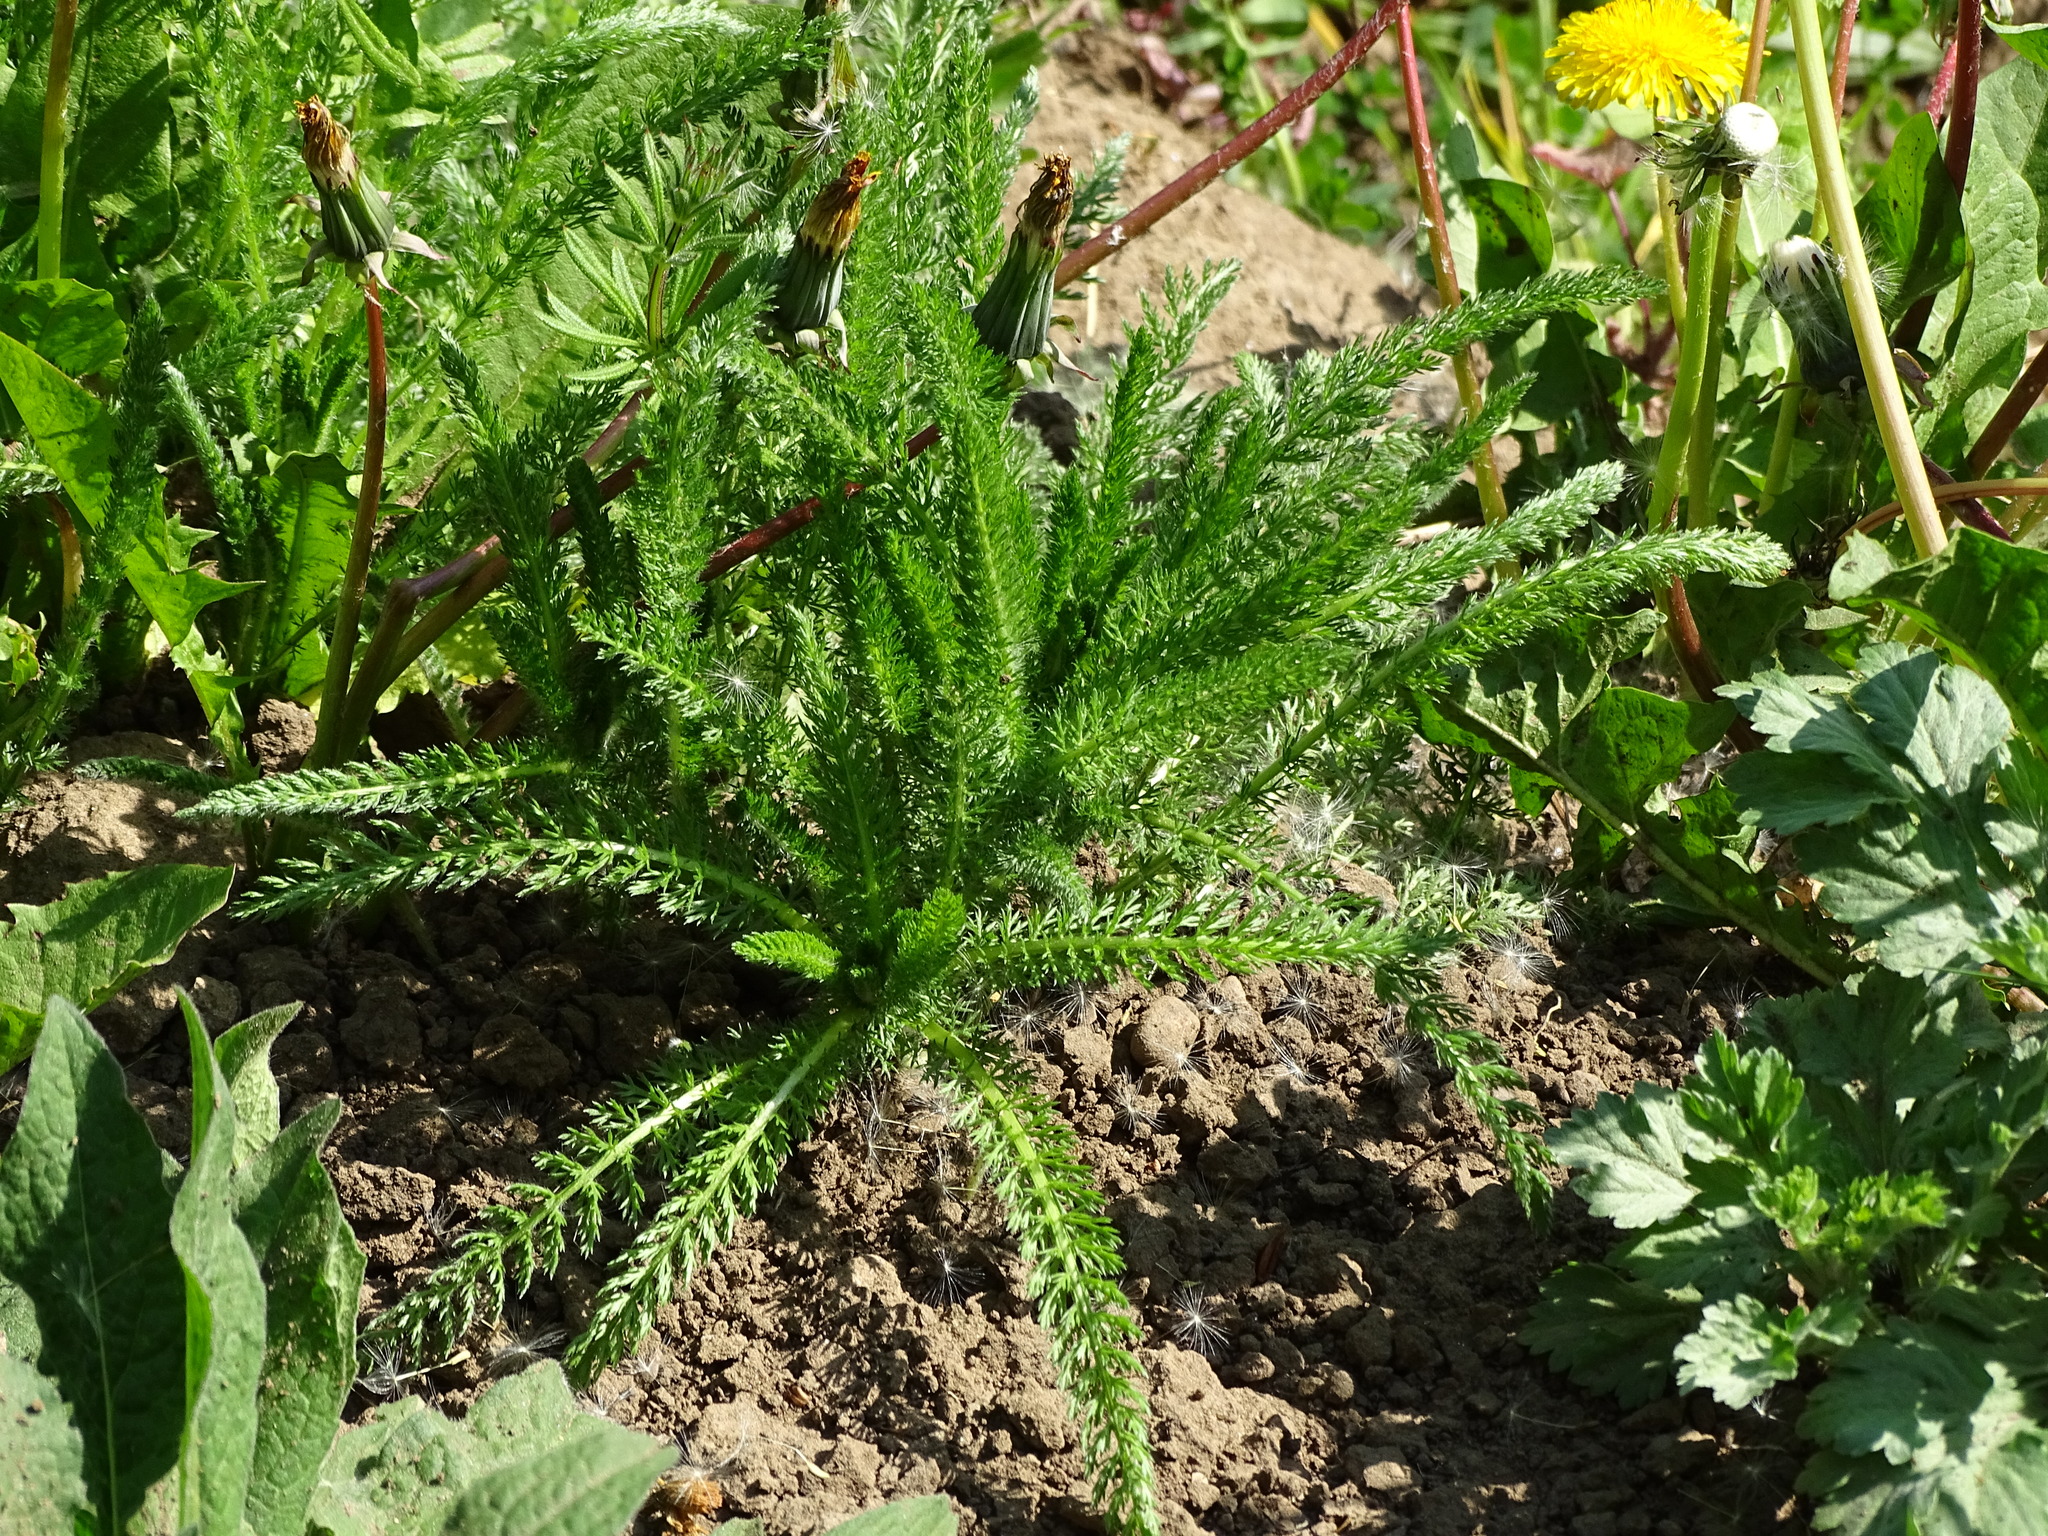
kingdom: Plantae
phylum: Tracheophyta
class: Magnoliopsida
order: Asterales
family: Asteraceae
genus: Achillea
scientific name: Achillea millefolium
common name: Yarrow
